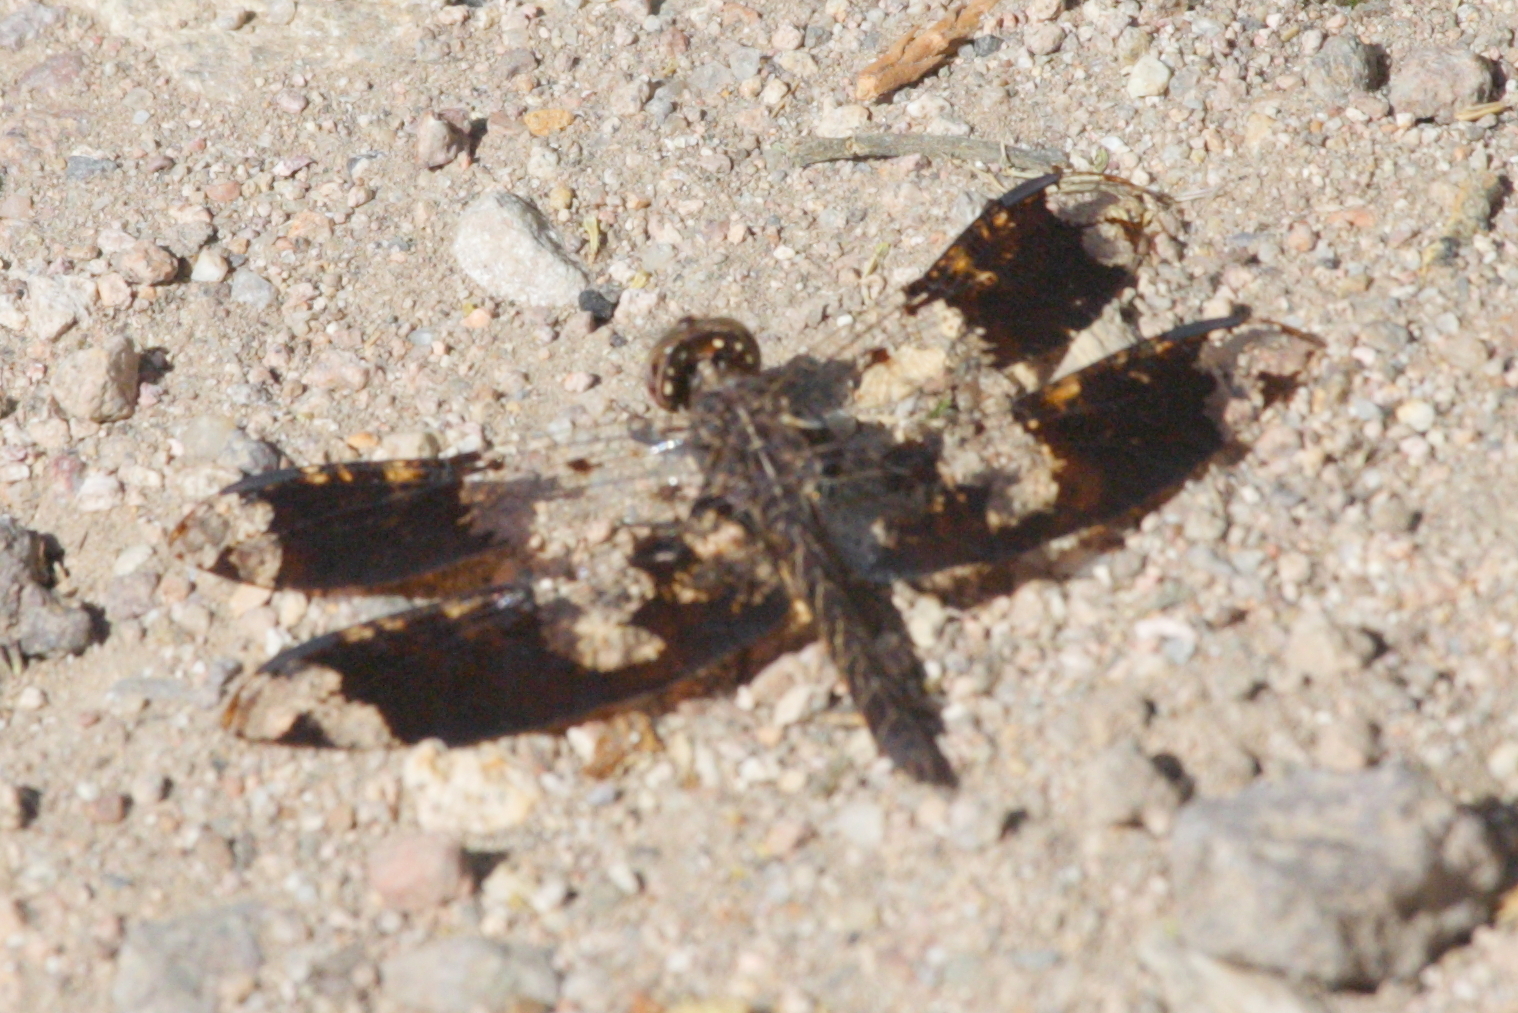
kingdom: Animalia
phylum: Arthropoda
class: Insecta
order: Odonata
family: Libellulidae
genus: Pseudoleon
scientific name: Pseudoleon superbus
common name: Filigree skimmer
